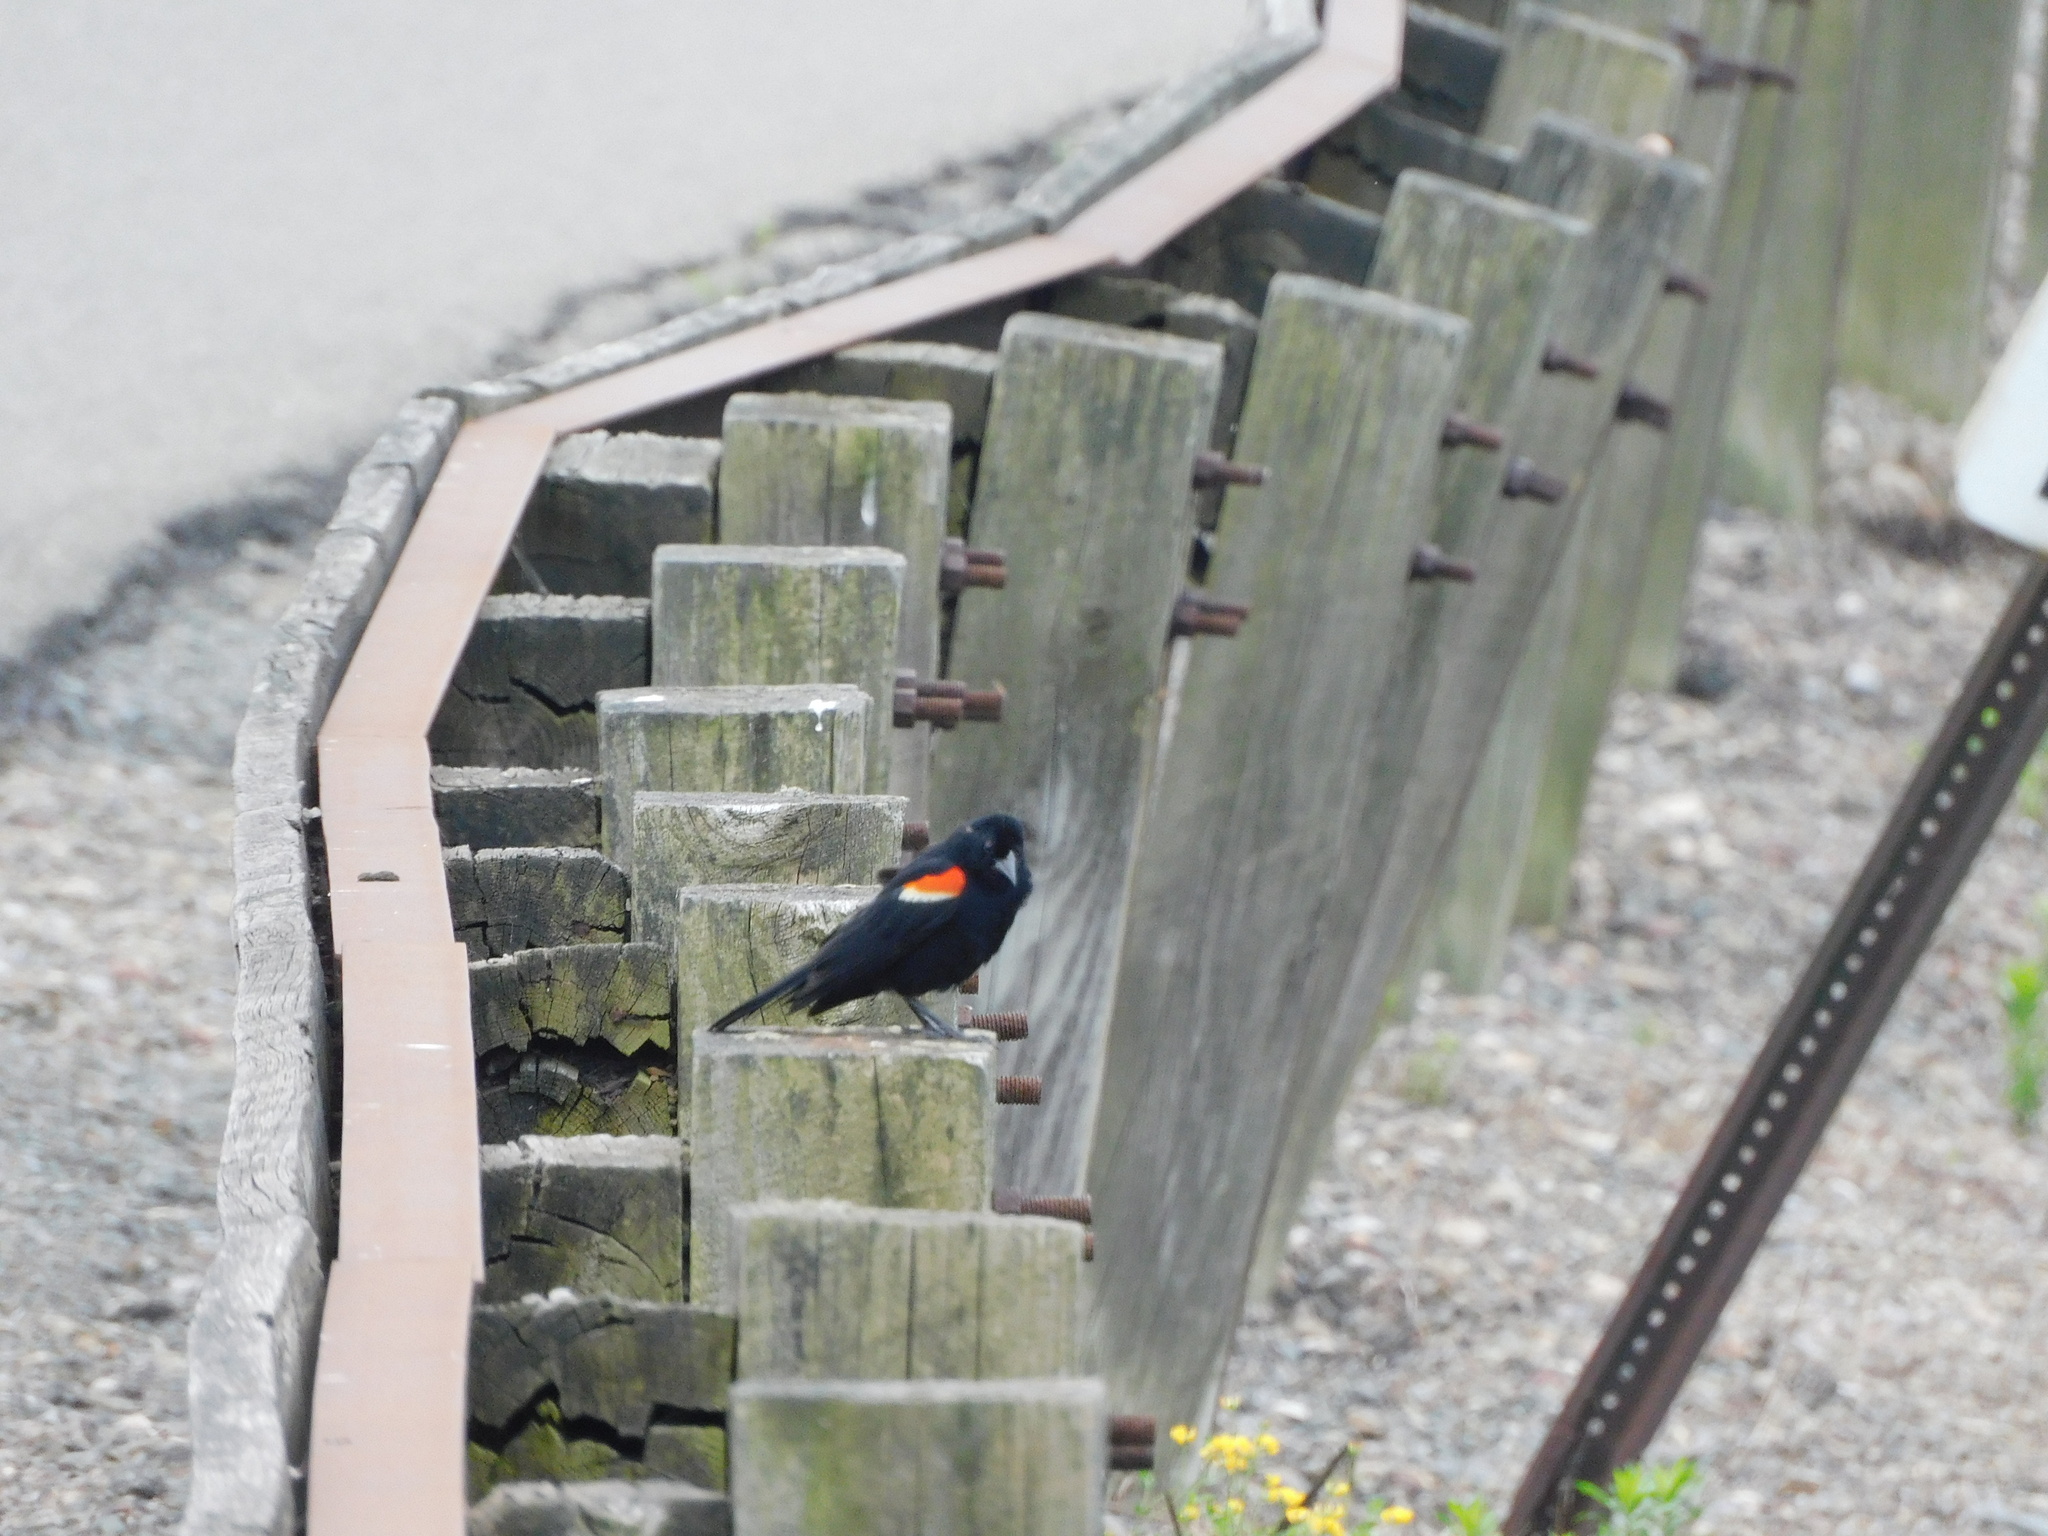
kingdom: Animalia
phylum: Chordata
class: Aves
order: Passeriformes
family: Icteridae
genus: Agelaius
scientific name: Agelaius phoeniceus
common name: Red-winged blackbird
